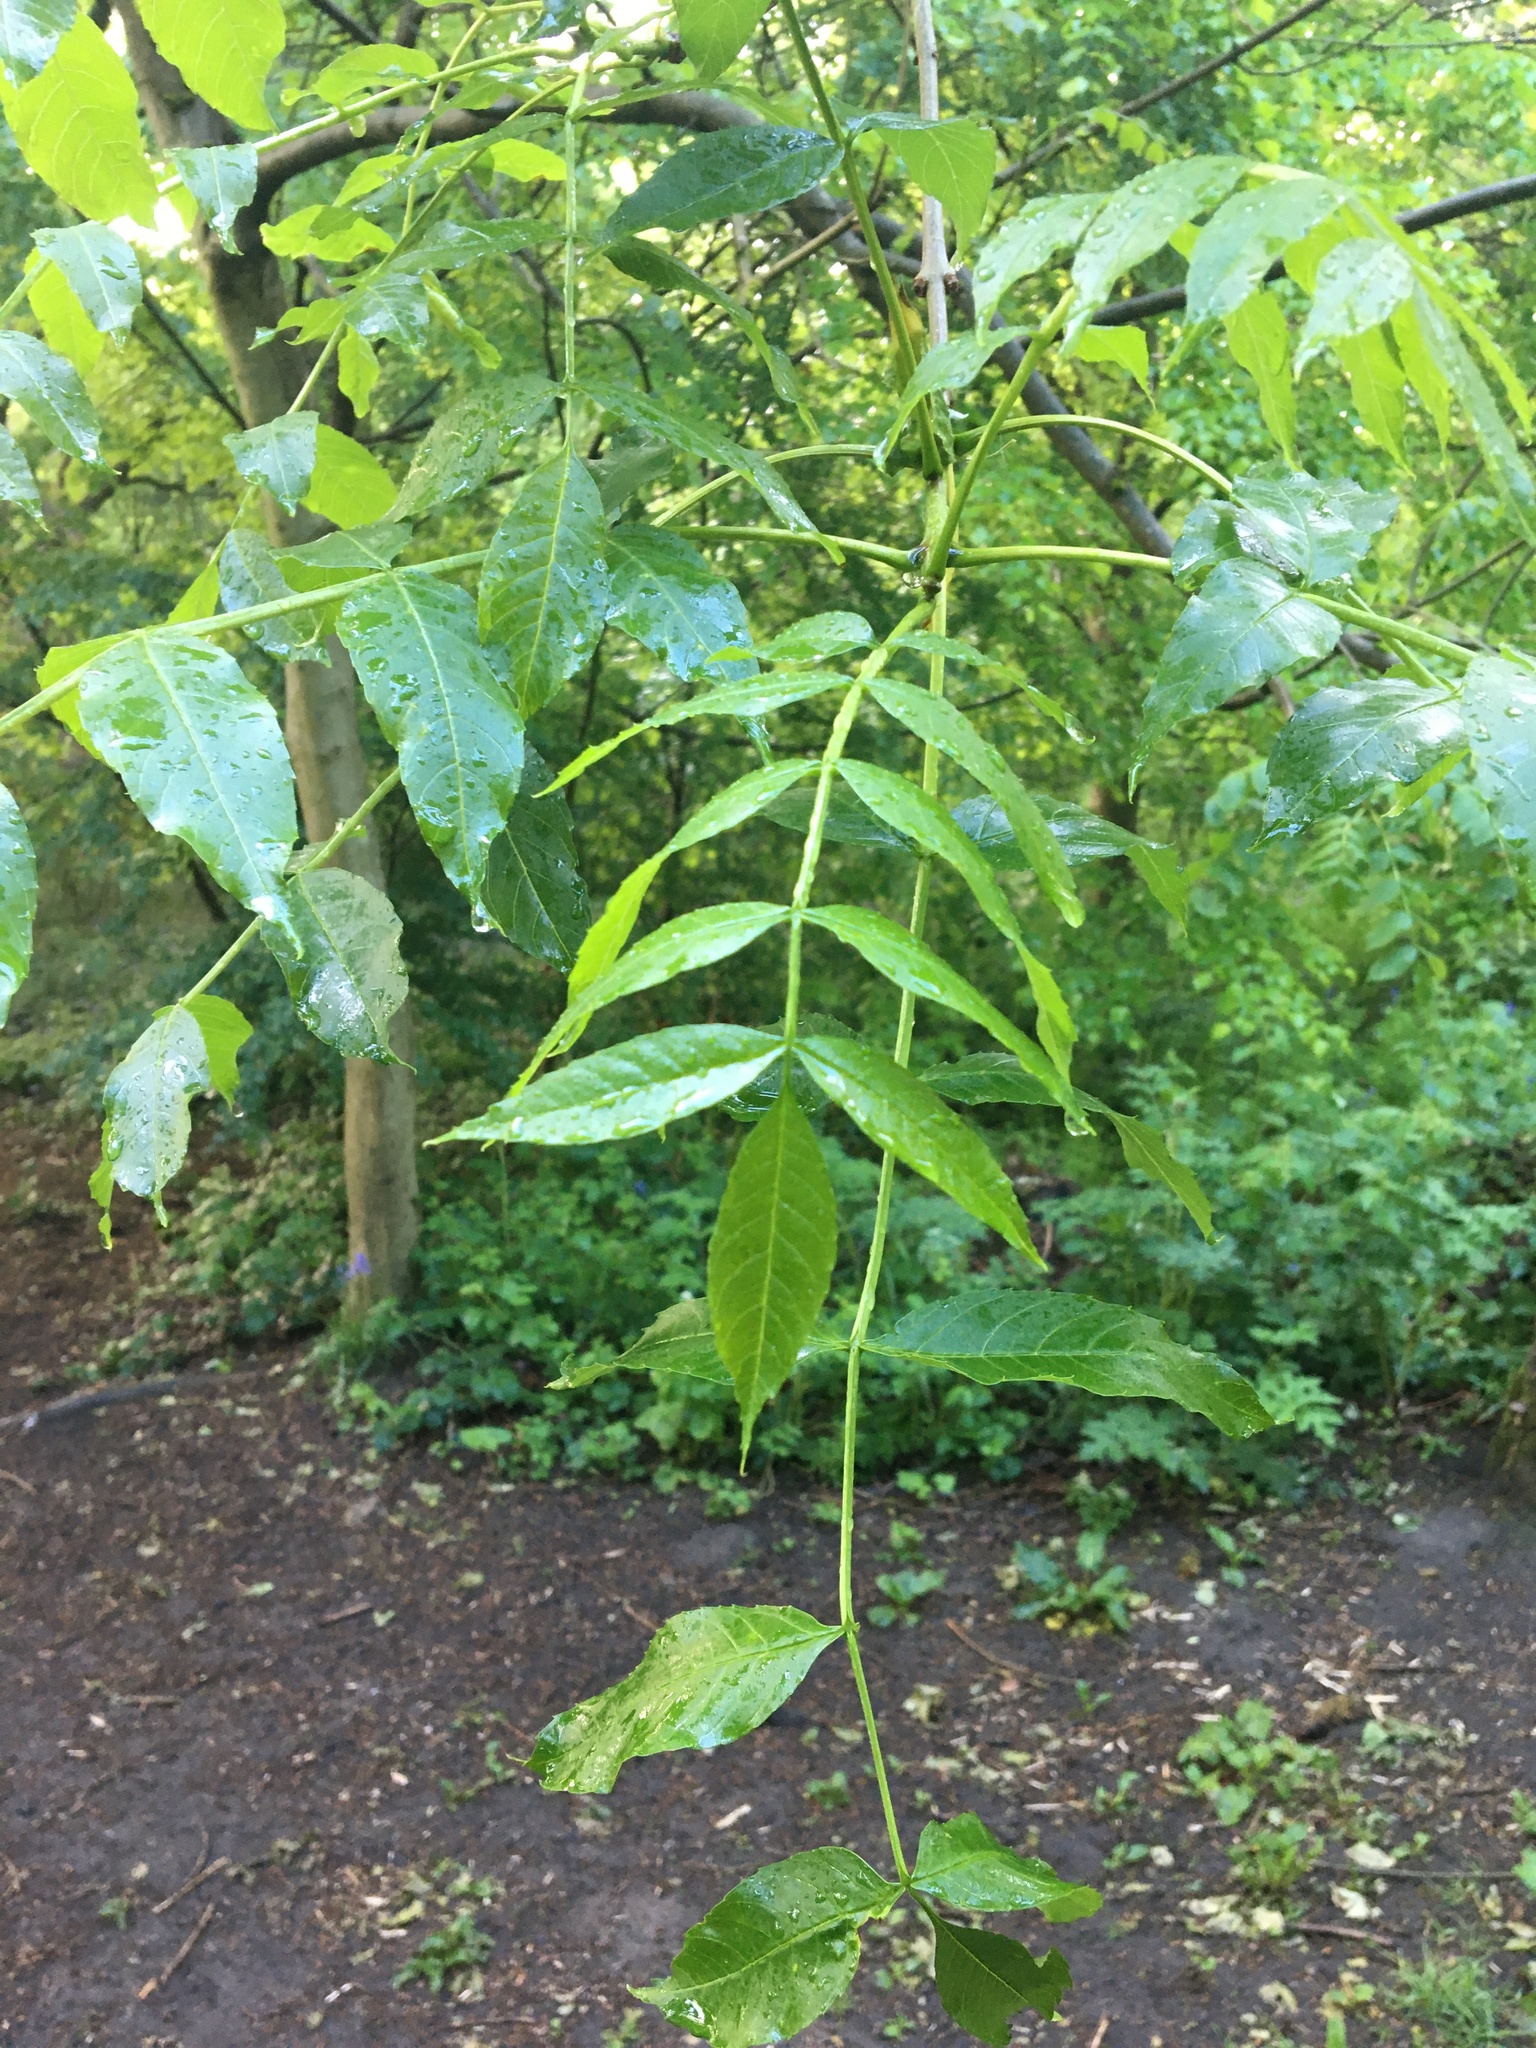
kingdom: Plantae
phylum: Tracheophyta
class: Magnoliopsida
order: Lamiales
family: Oleaceae
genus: Fraxinus
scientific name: Fraxinus excelsior
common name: European ash
